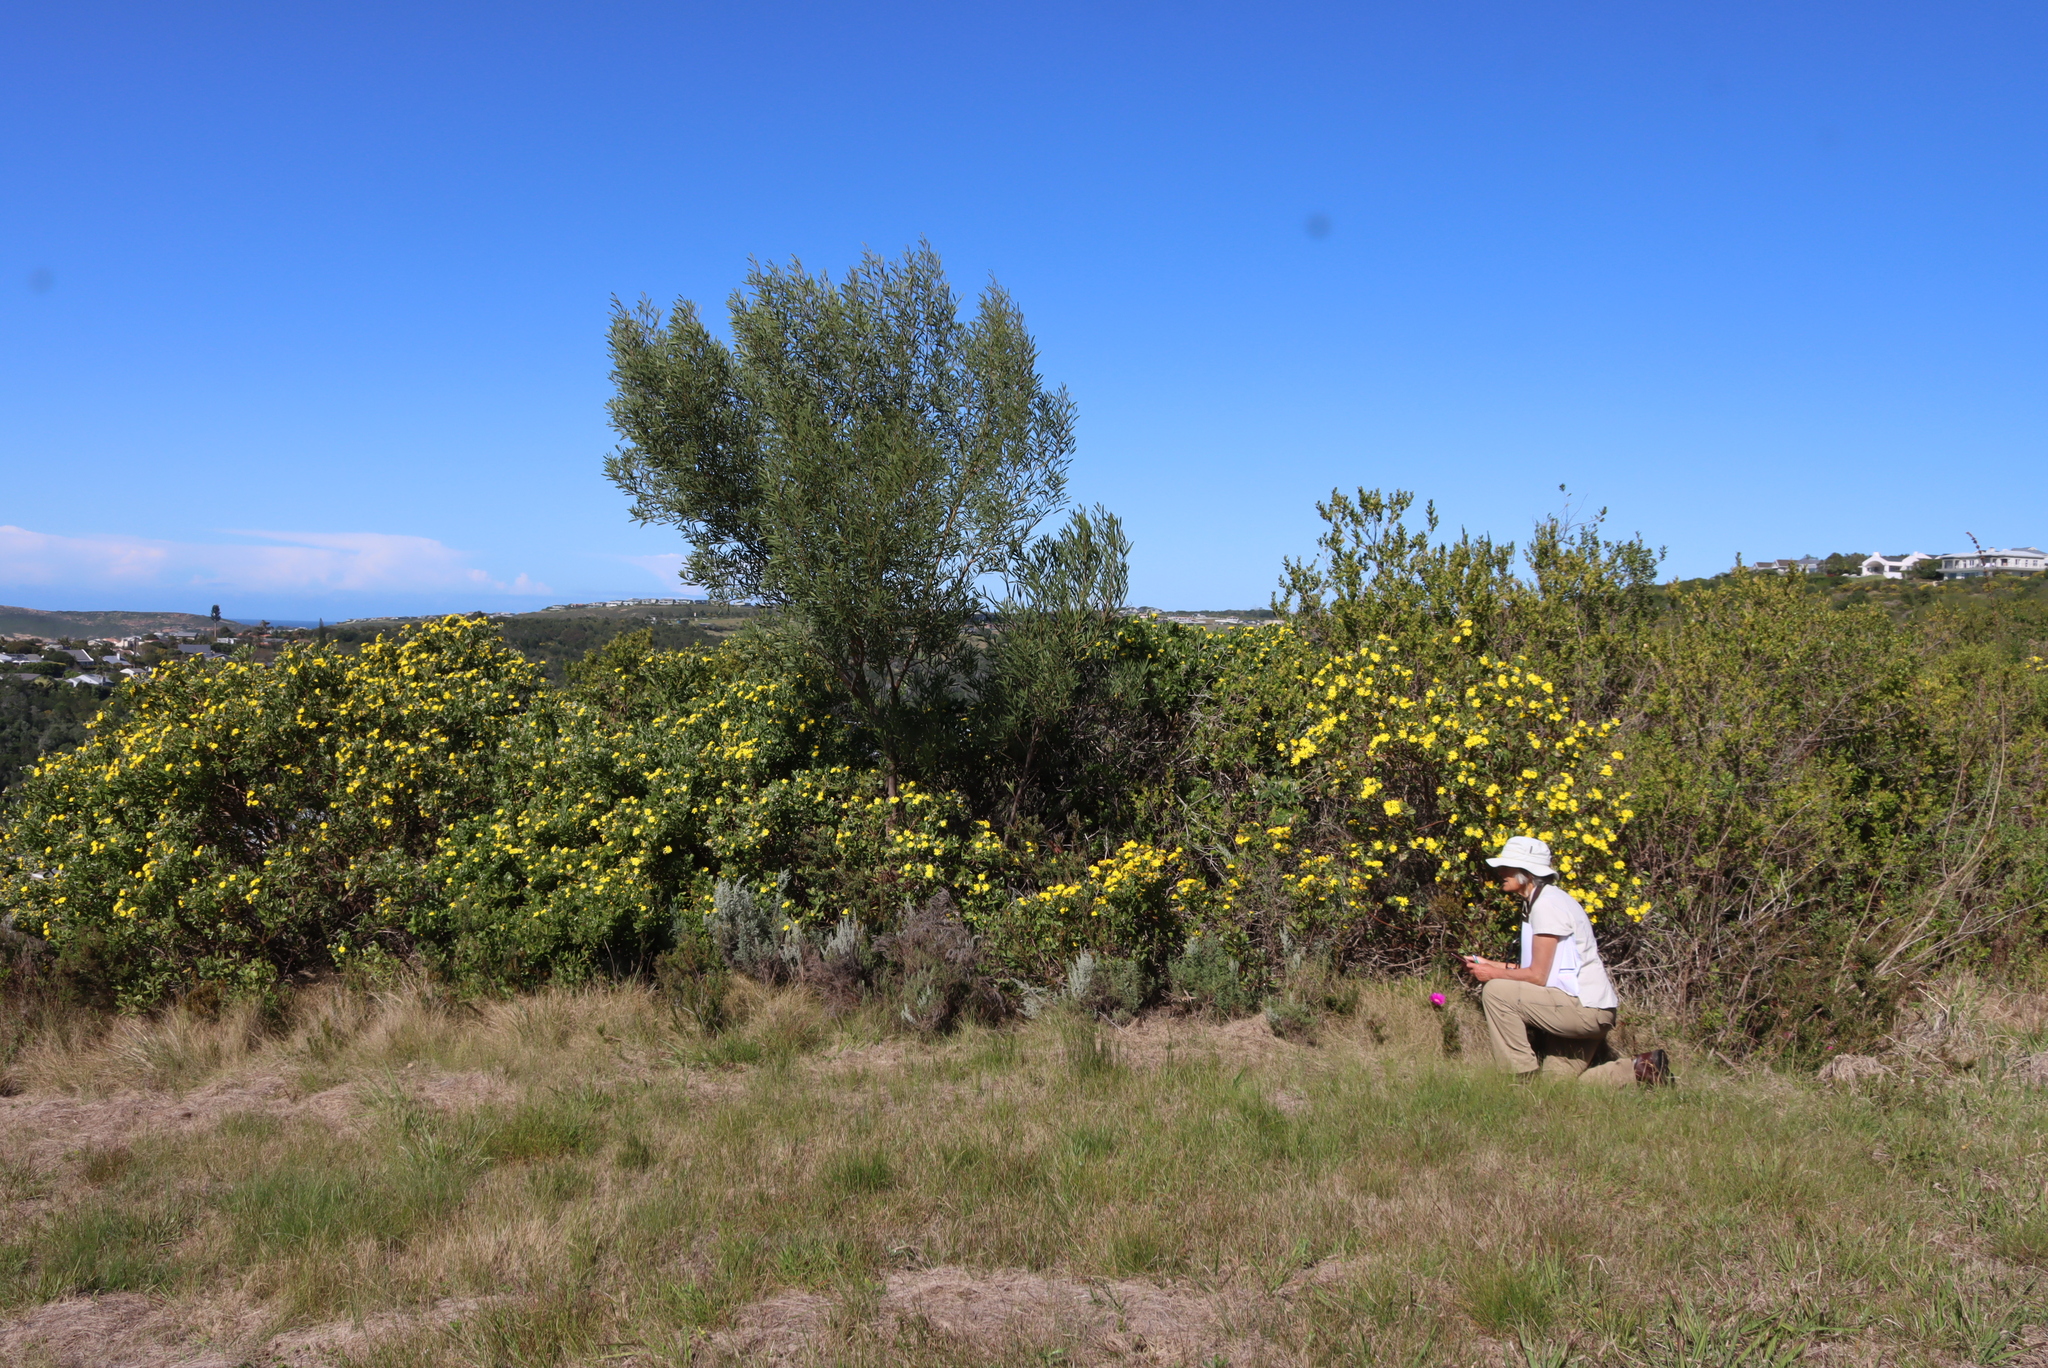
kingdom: Plantae
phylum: Tracheophyta
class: Magnoliopsida
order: Asterales
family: Asteraceae
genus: Osteospermum
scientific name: Osteospermum moniliferum
